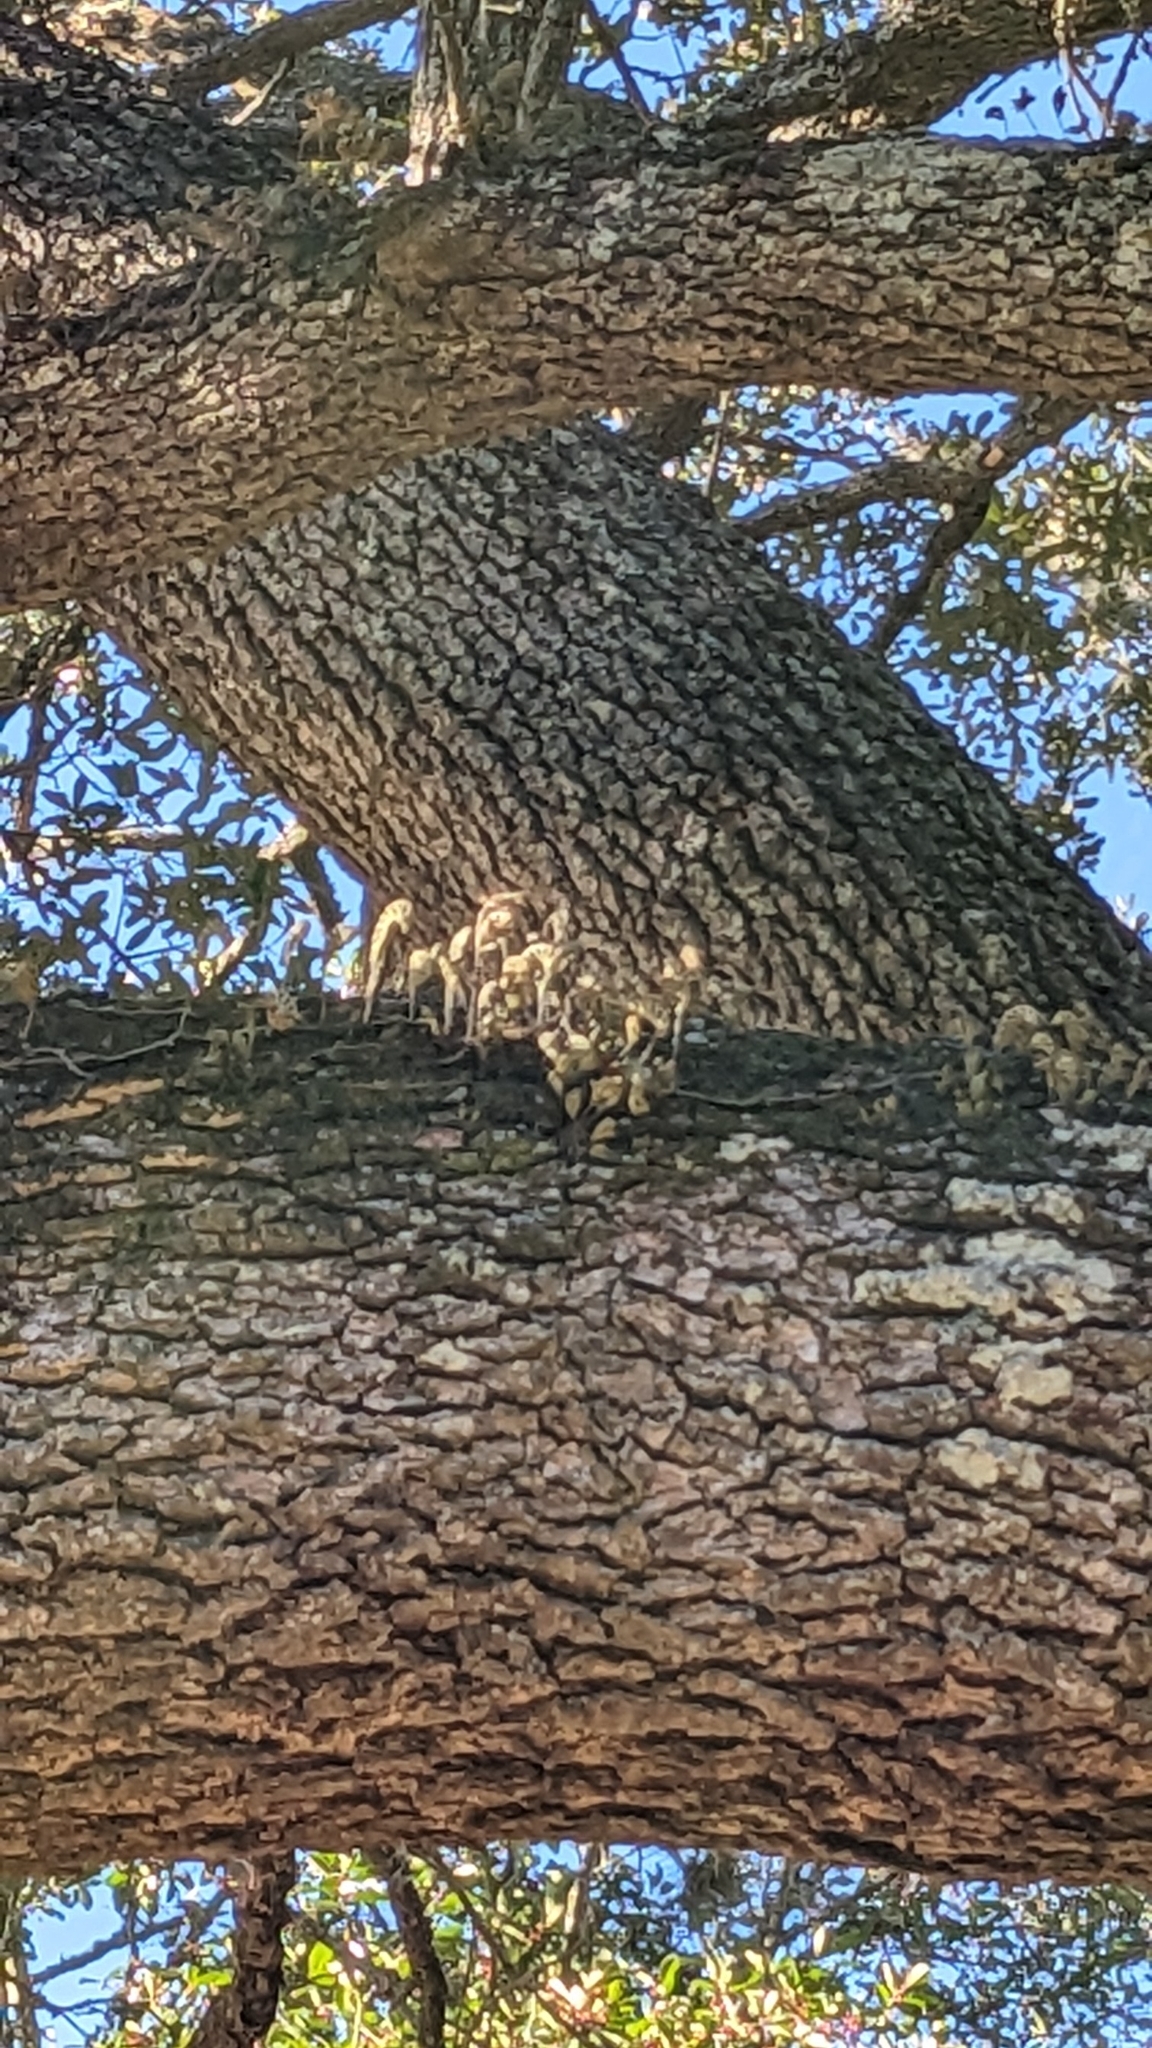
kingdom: Plantae
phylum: Tracheophyta
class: Polypodiopsida
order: Polypodiales
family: Polypodiaceae
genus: Pleopeltis
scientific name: Pleopeltis michauxiana
